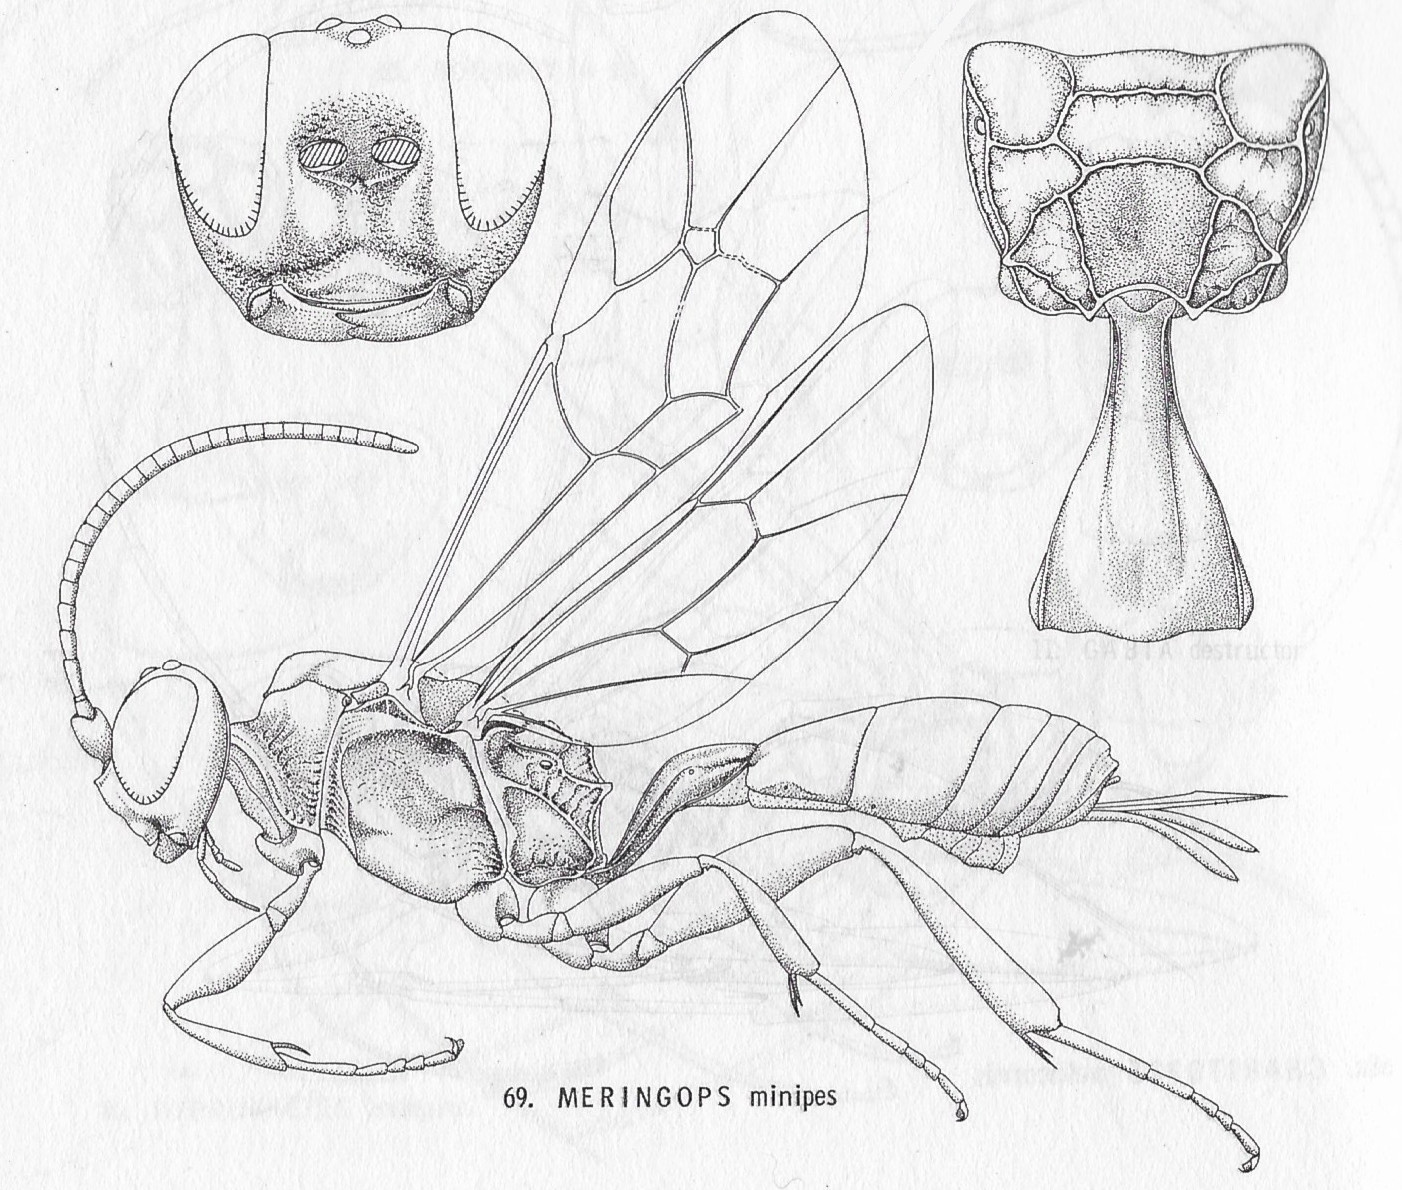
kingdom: Animalia
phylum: Arthropoda
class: Insecta
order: Hymenoptera
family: Ichneumonidae
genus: Meringops
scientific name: Meringops
